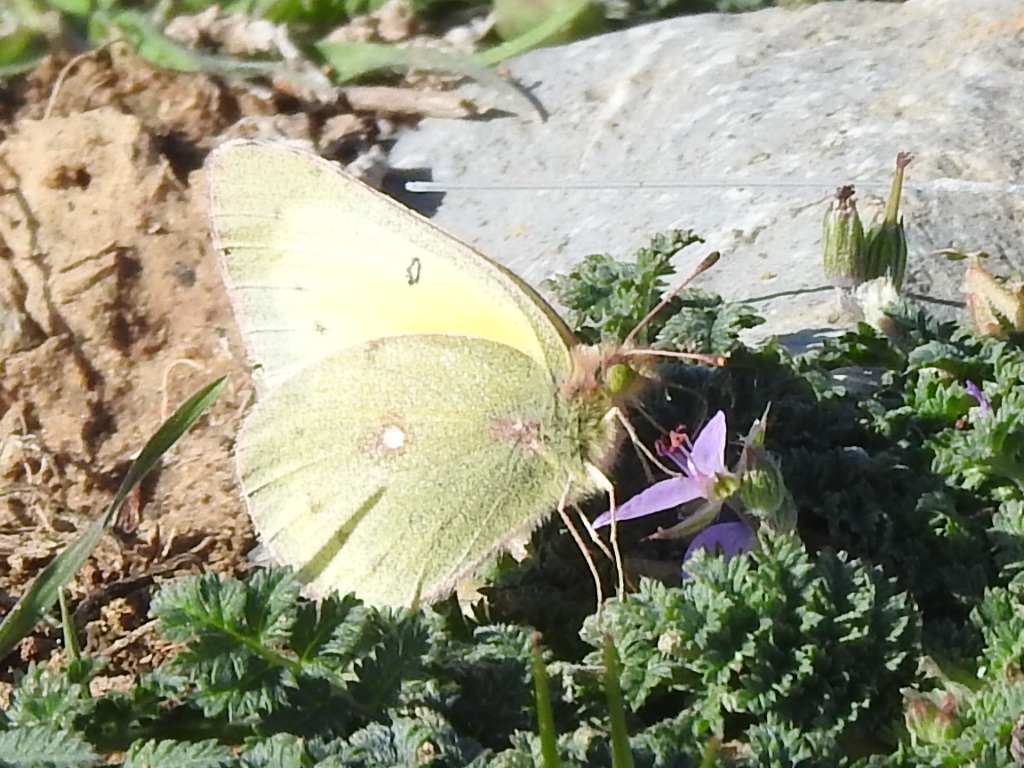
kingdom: Animalia
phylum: Arthropoda
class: Insecta
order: Lepidoptera
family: Pieridae
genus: Colias
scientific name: Colias eurytheme
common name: Alfalfa butterfly
